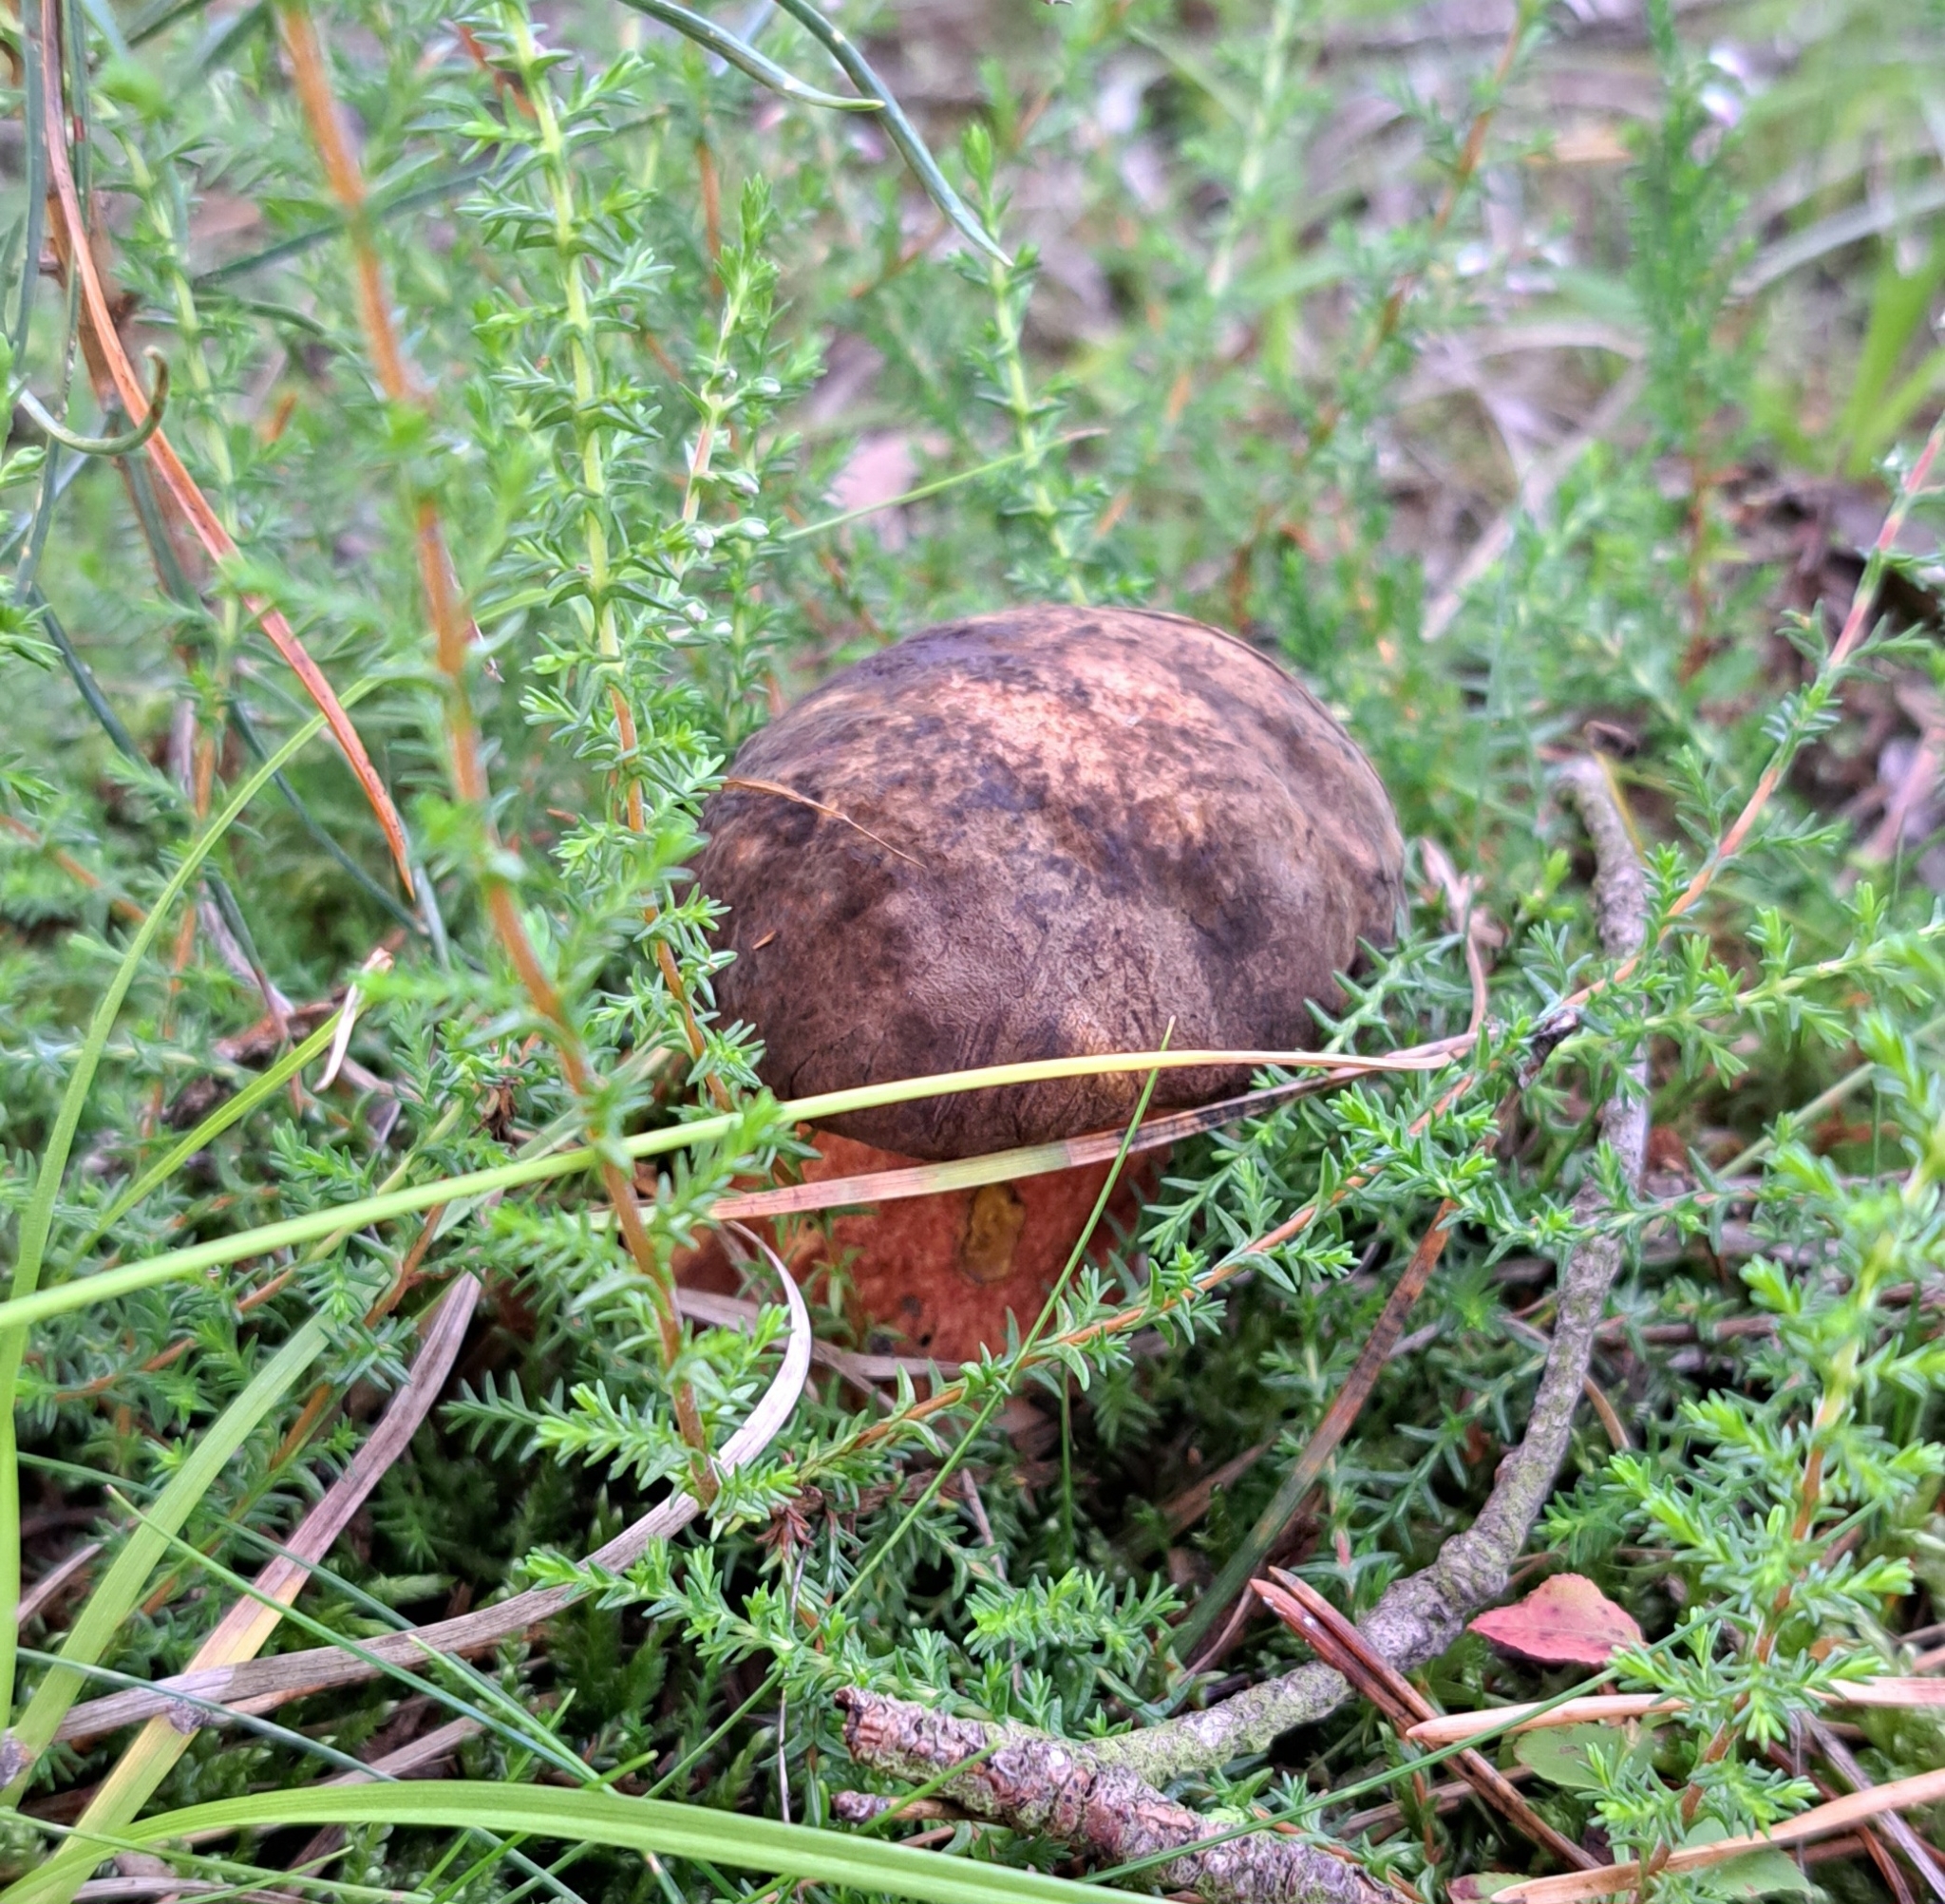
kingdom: Fungi
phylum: Basidiomycota
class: Agaricomycetes
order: Boletales
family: Boletaceae
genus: Neoboletus
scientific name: Neoboletus luridiformis
